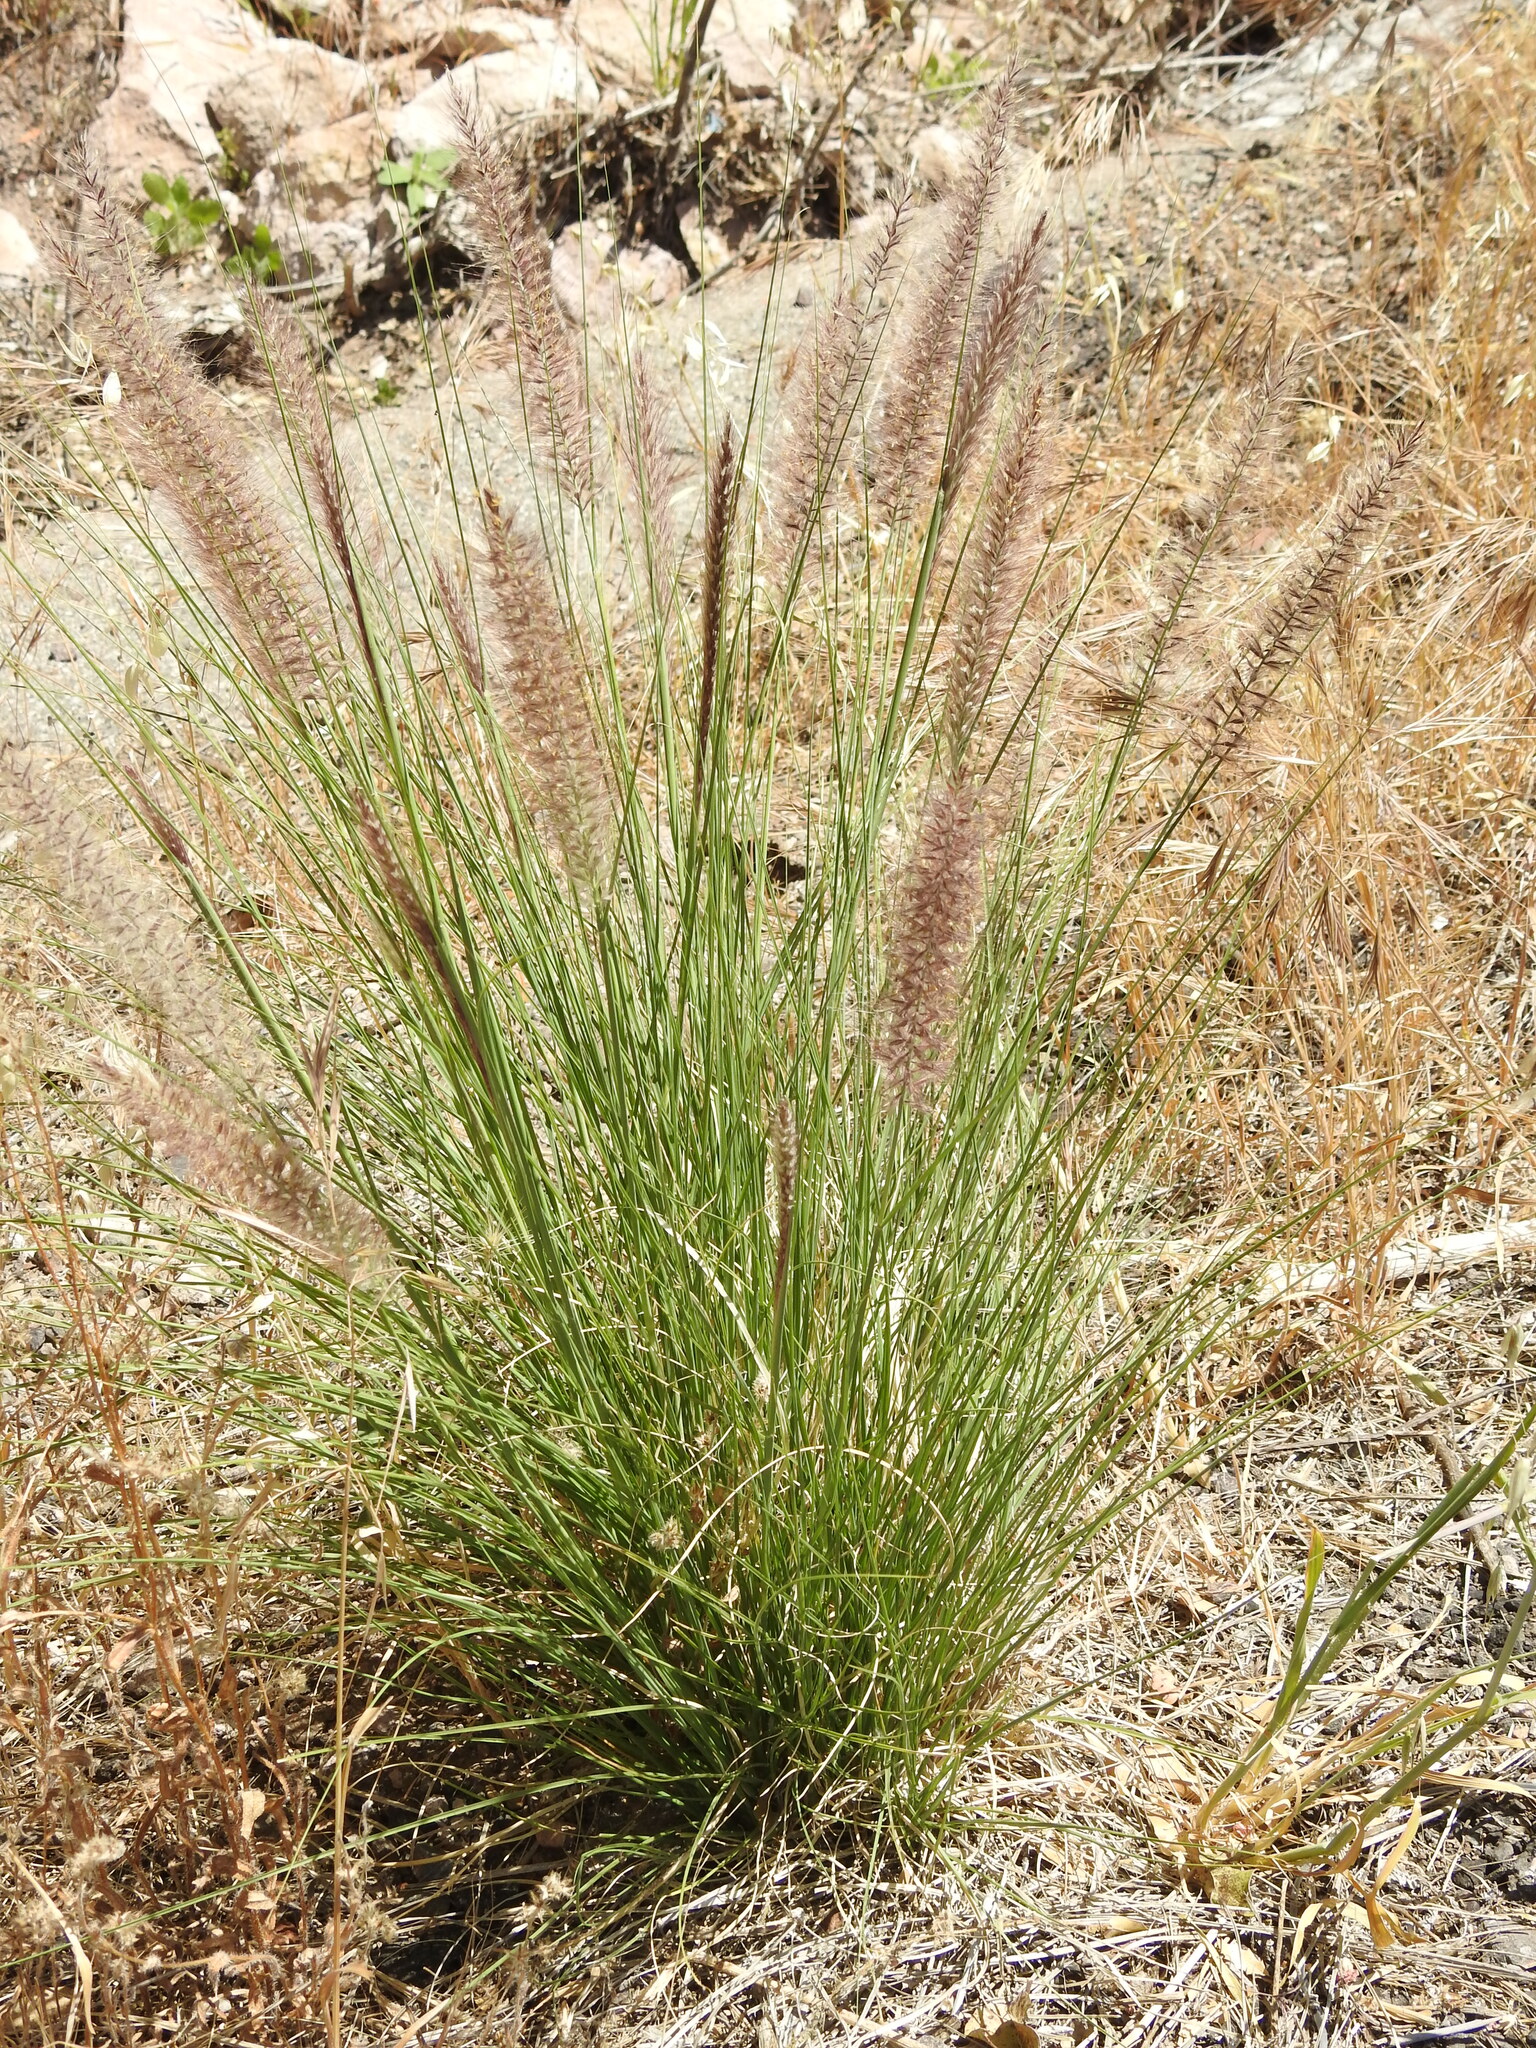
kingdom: Plantae
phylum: Tracheophyta
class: Liliopsida
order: Poales
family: Poaceae
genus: Cenchrus
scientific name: Cenchrus setaceus
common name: Crimson fountaingrass
